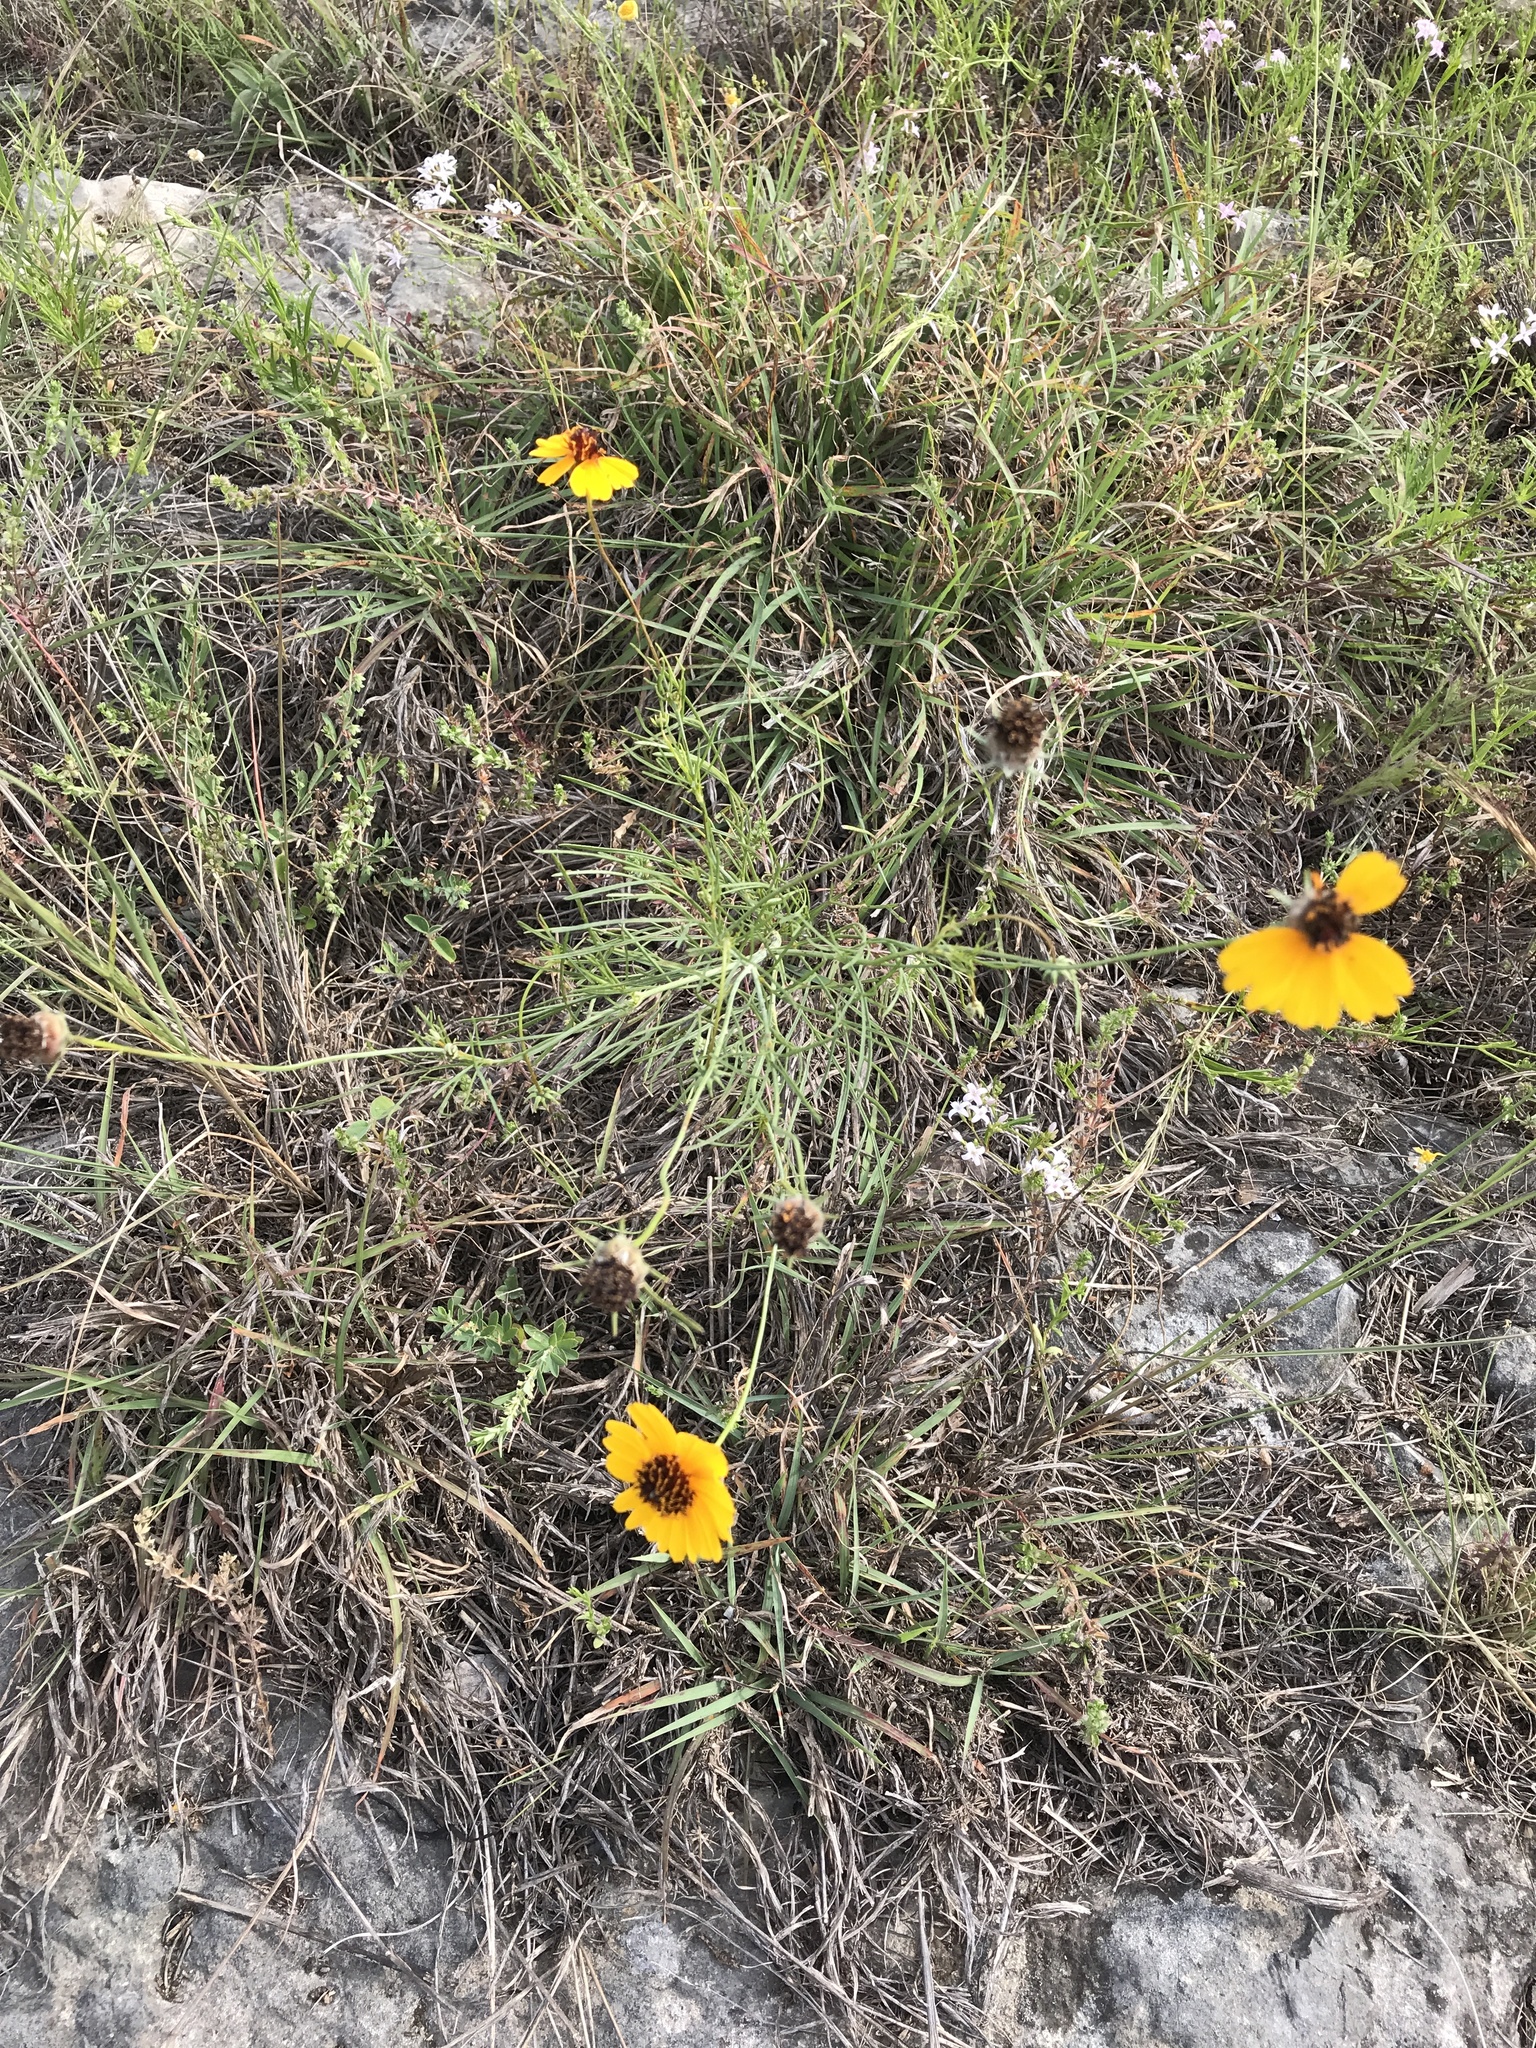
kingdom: Plantae
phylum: Tracheophyta
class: Magnoliopsida
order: Asterales
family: Asteraceae
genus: Thelesperma
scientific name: Thelesperma filifolium
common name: Stiff greenthread
